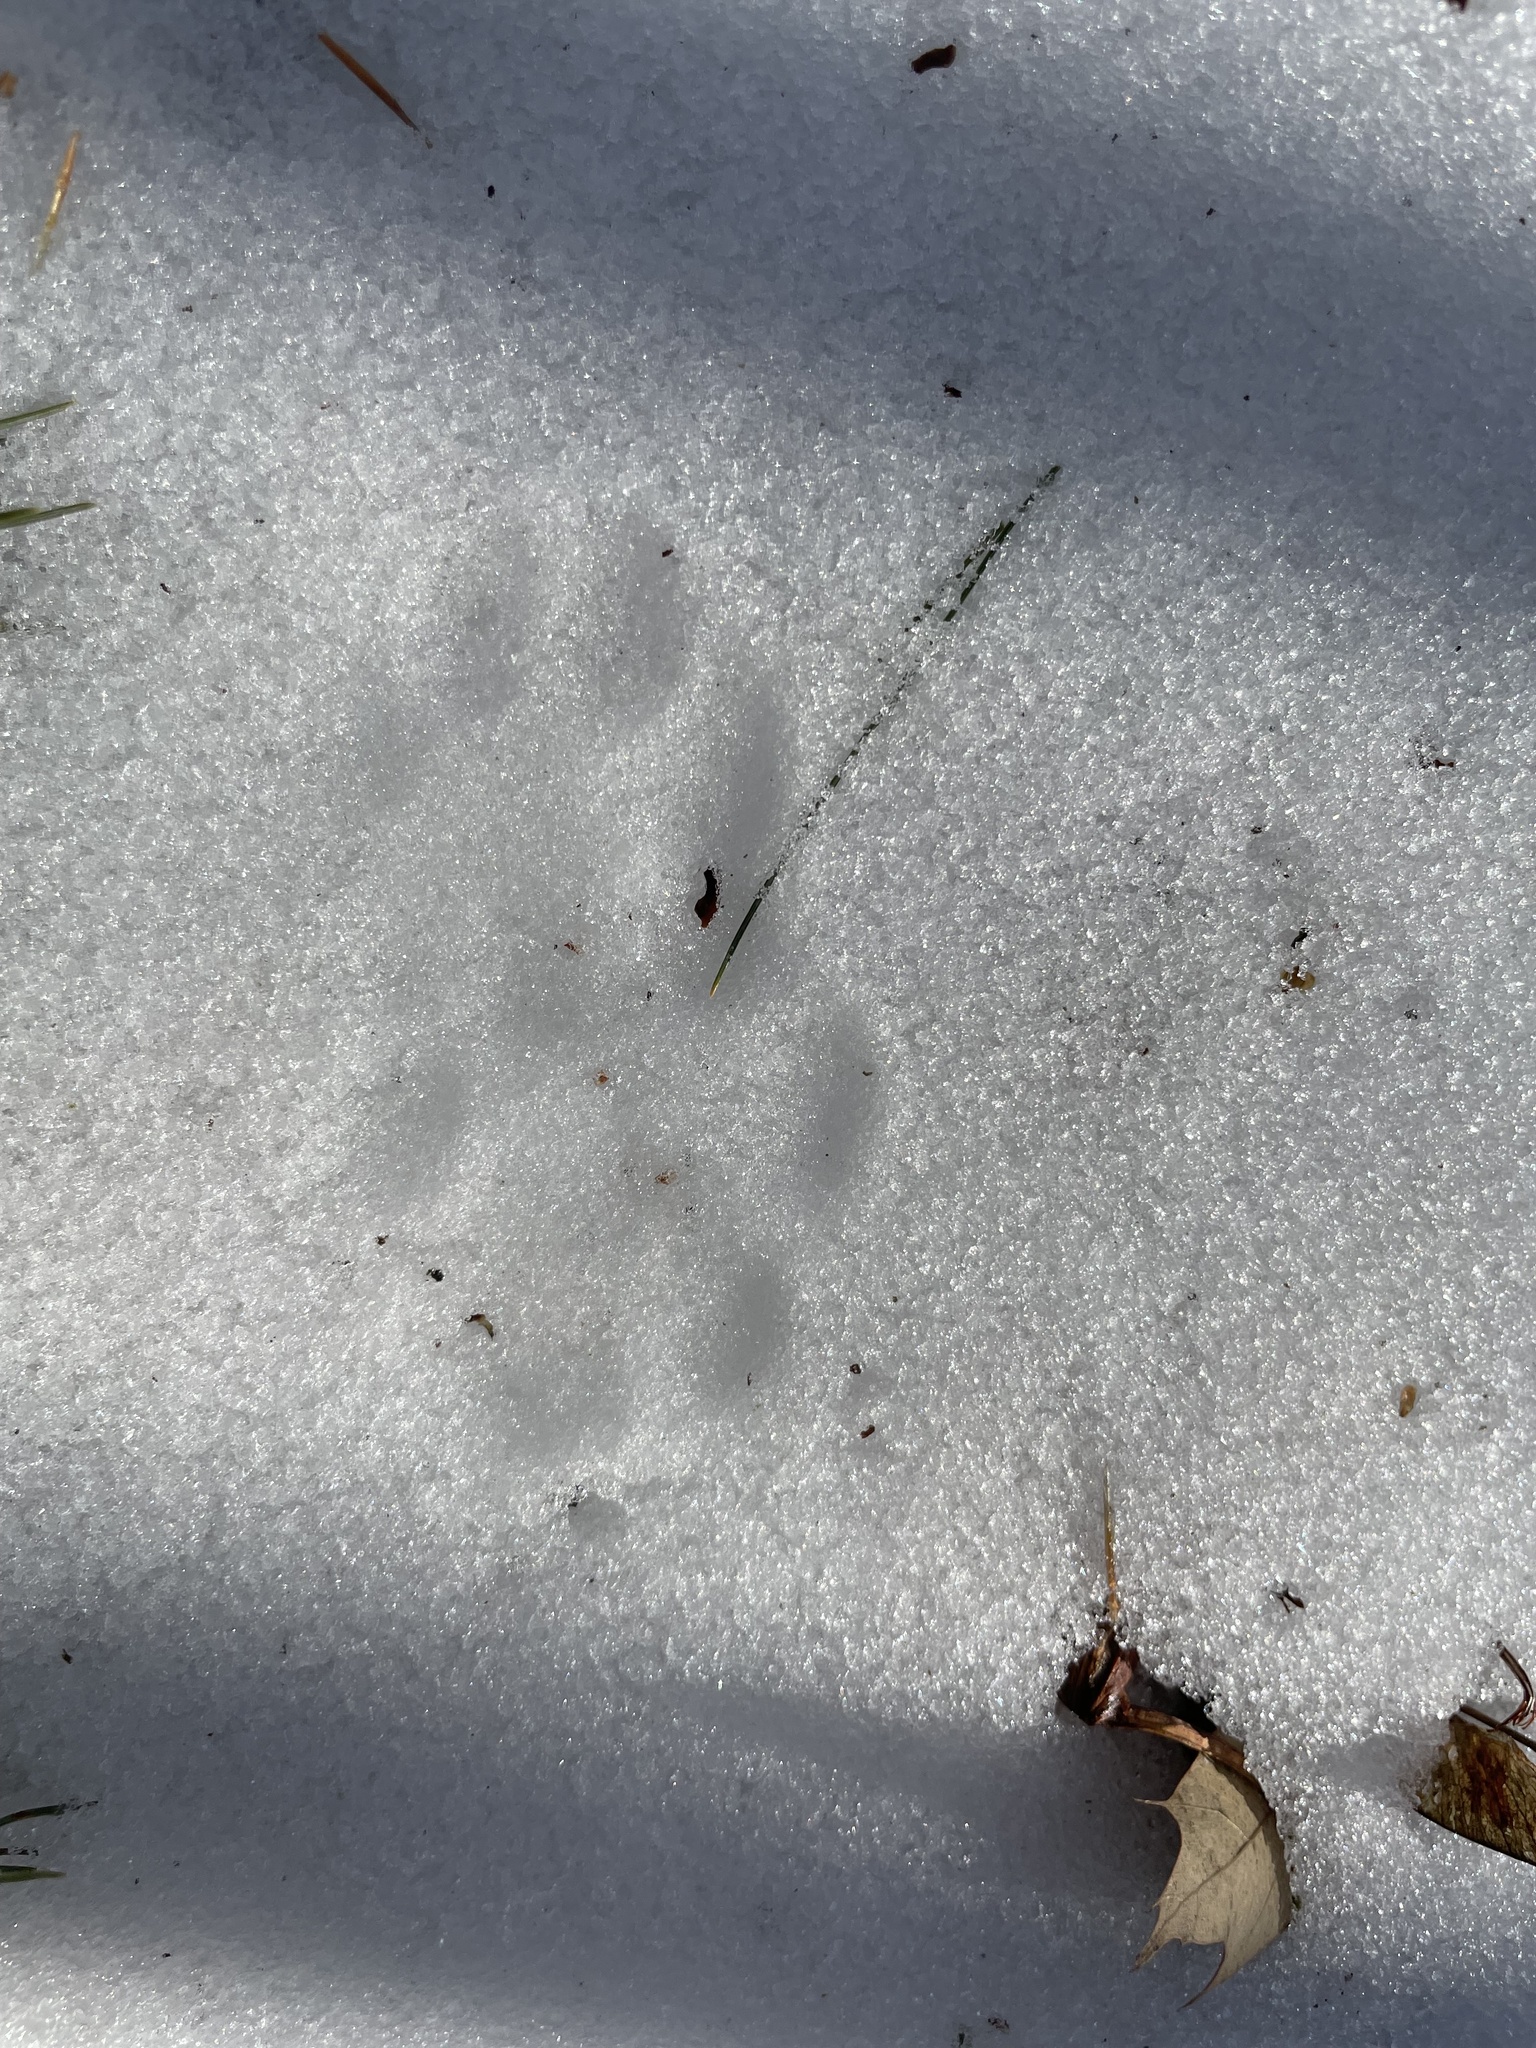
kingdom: Animalia
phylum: Chordata
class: Mammalia
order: Carnivora
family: Felidae
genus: Lynx
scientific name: Lynx rufus
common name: Bobcat
